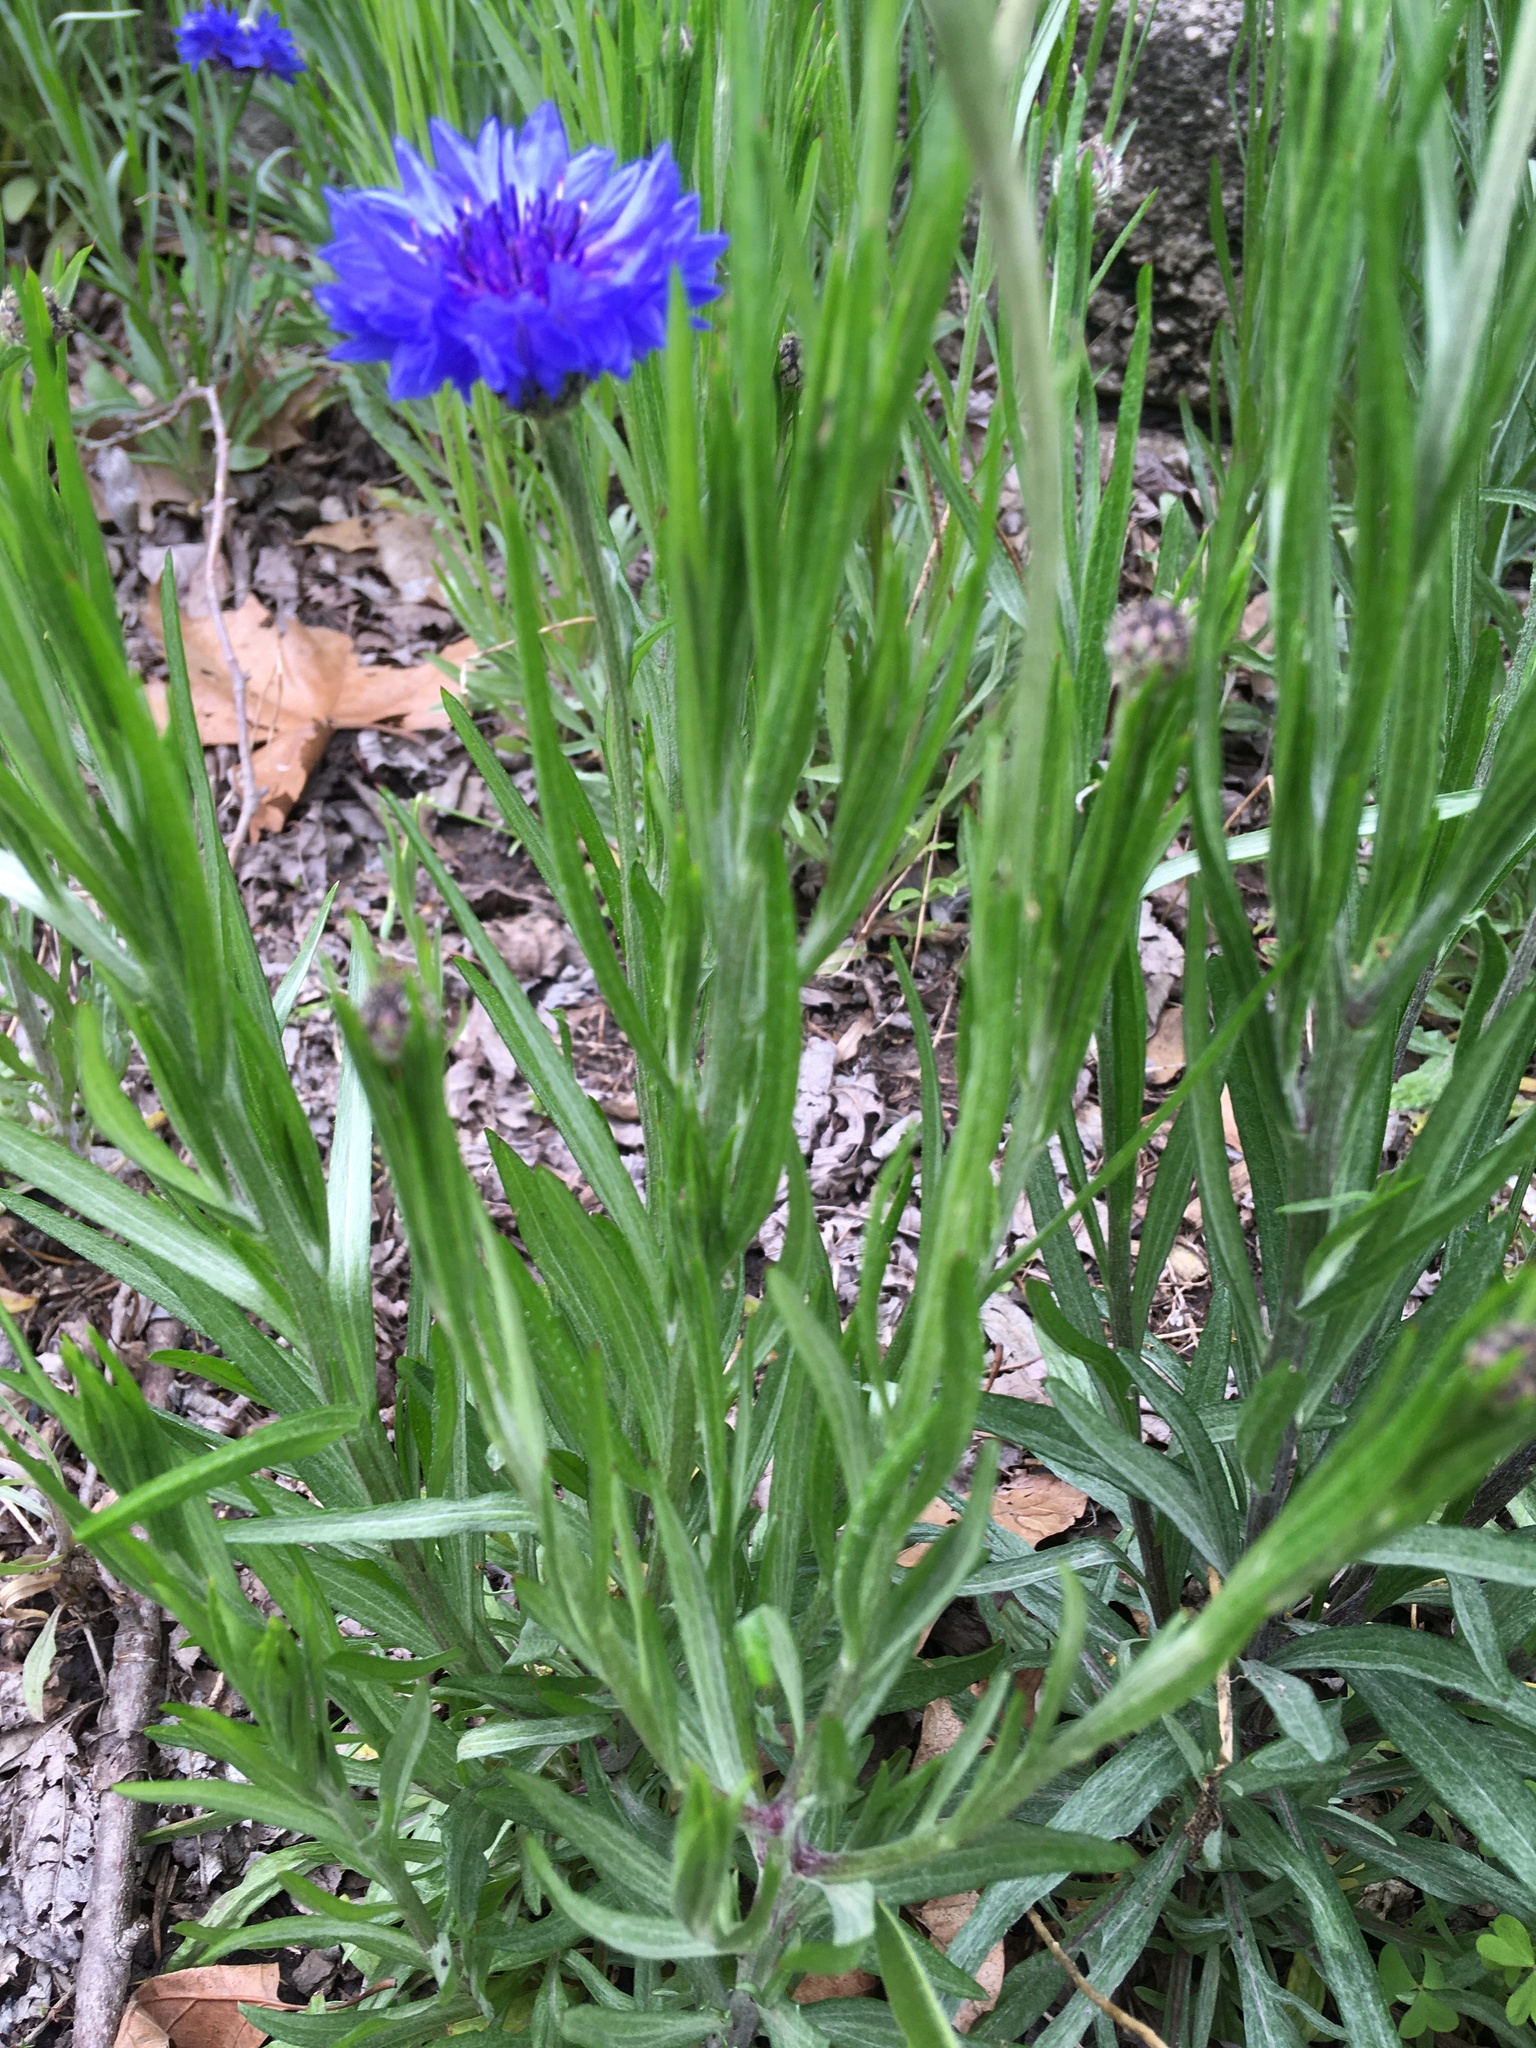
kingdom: Plantae
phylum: Tracheophyta
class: Magnoliopsida
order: Asterales
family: Asteraceae
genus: Centaurea
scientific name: Centaurea cyanus
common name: Cornflower
